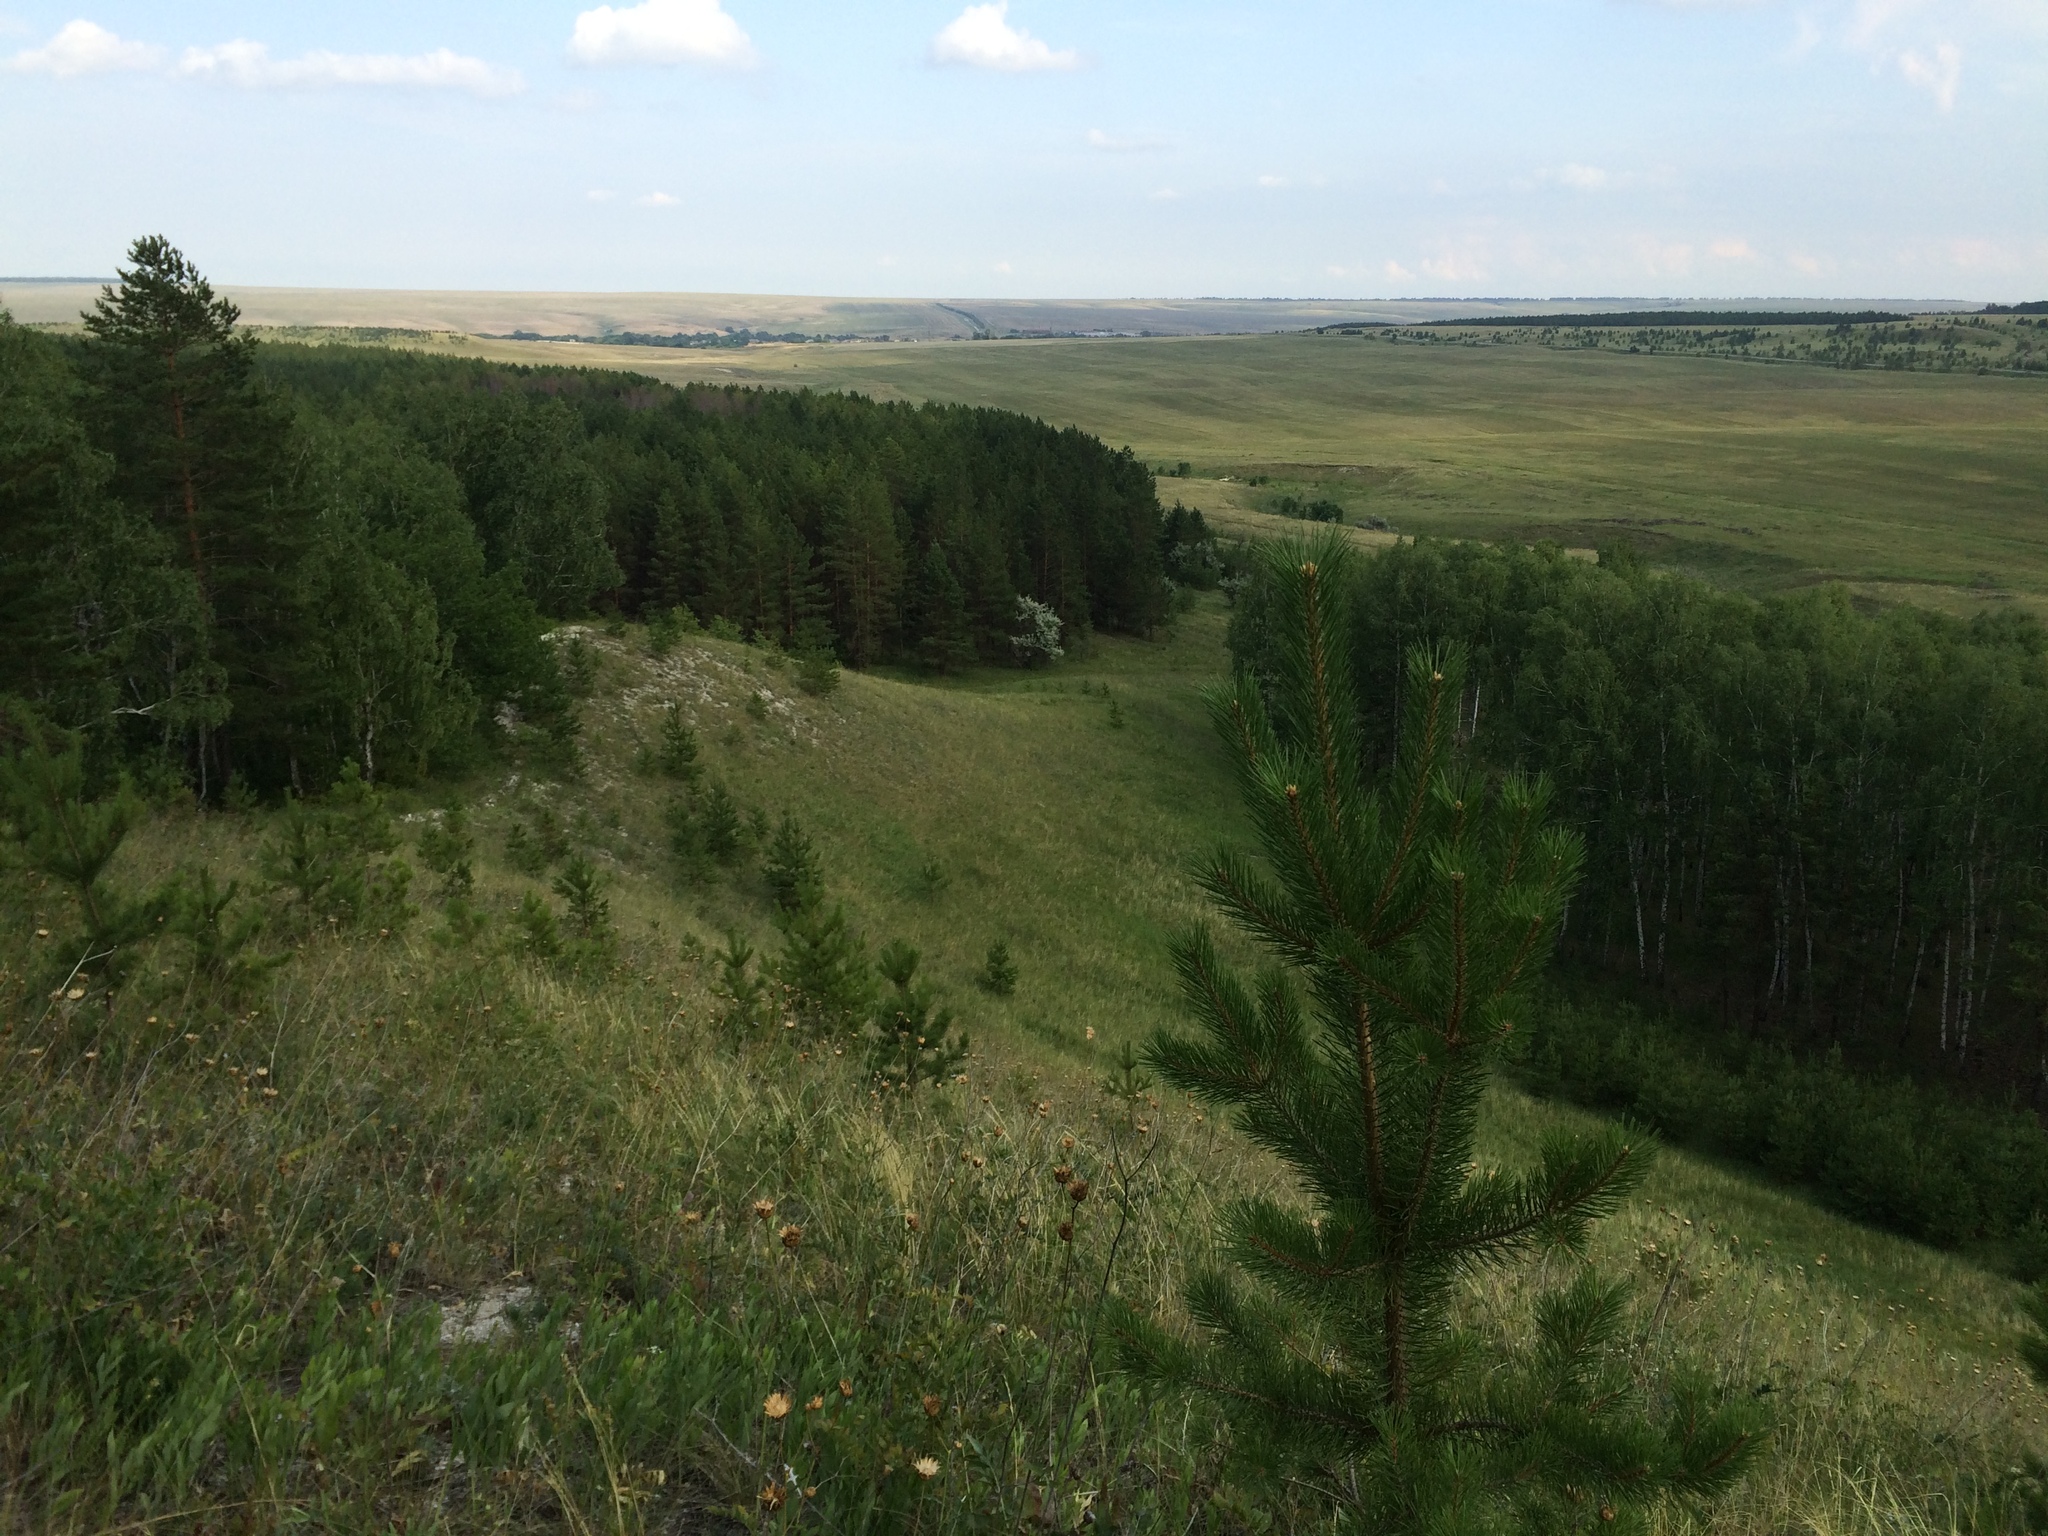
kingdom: Plantae
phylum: Tracheophyta
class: Pinopsida
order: Pinales
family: Pinaceae
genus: Pinus
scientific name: Pinus sylvestris
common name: Scots pine
